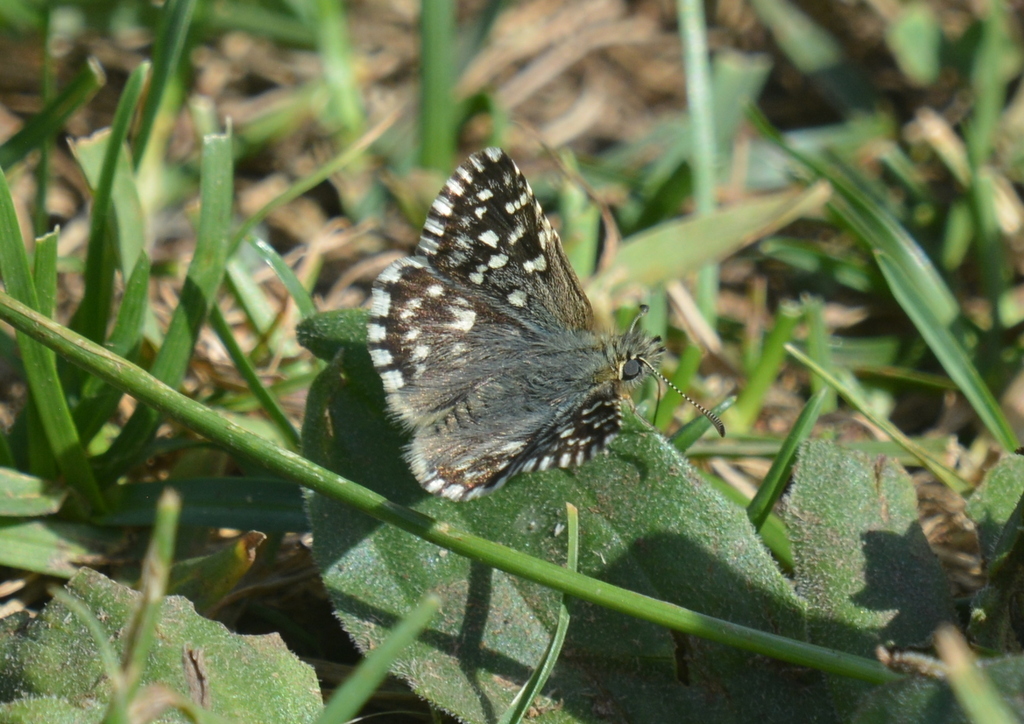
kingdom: Animalia
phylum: Arthropoda
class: Insecta
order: Lepidoptera
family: Hesperiidae
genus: Pyrgus
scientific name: Pyrgus malvae
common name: Grizzled skipper
